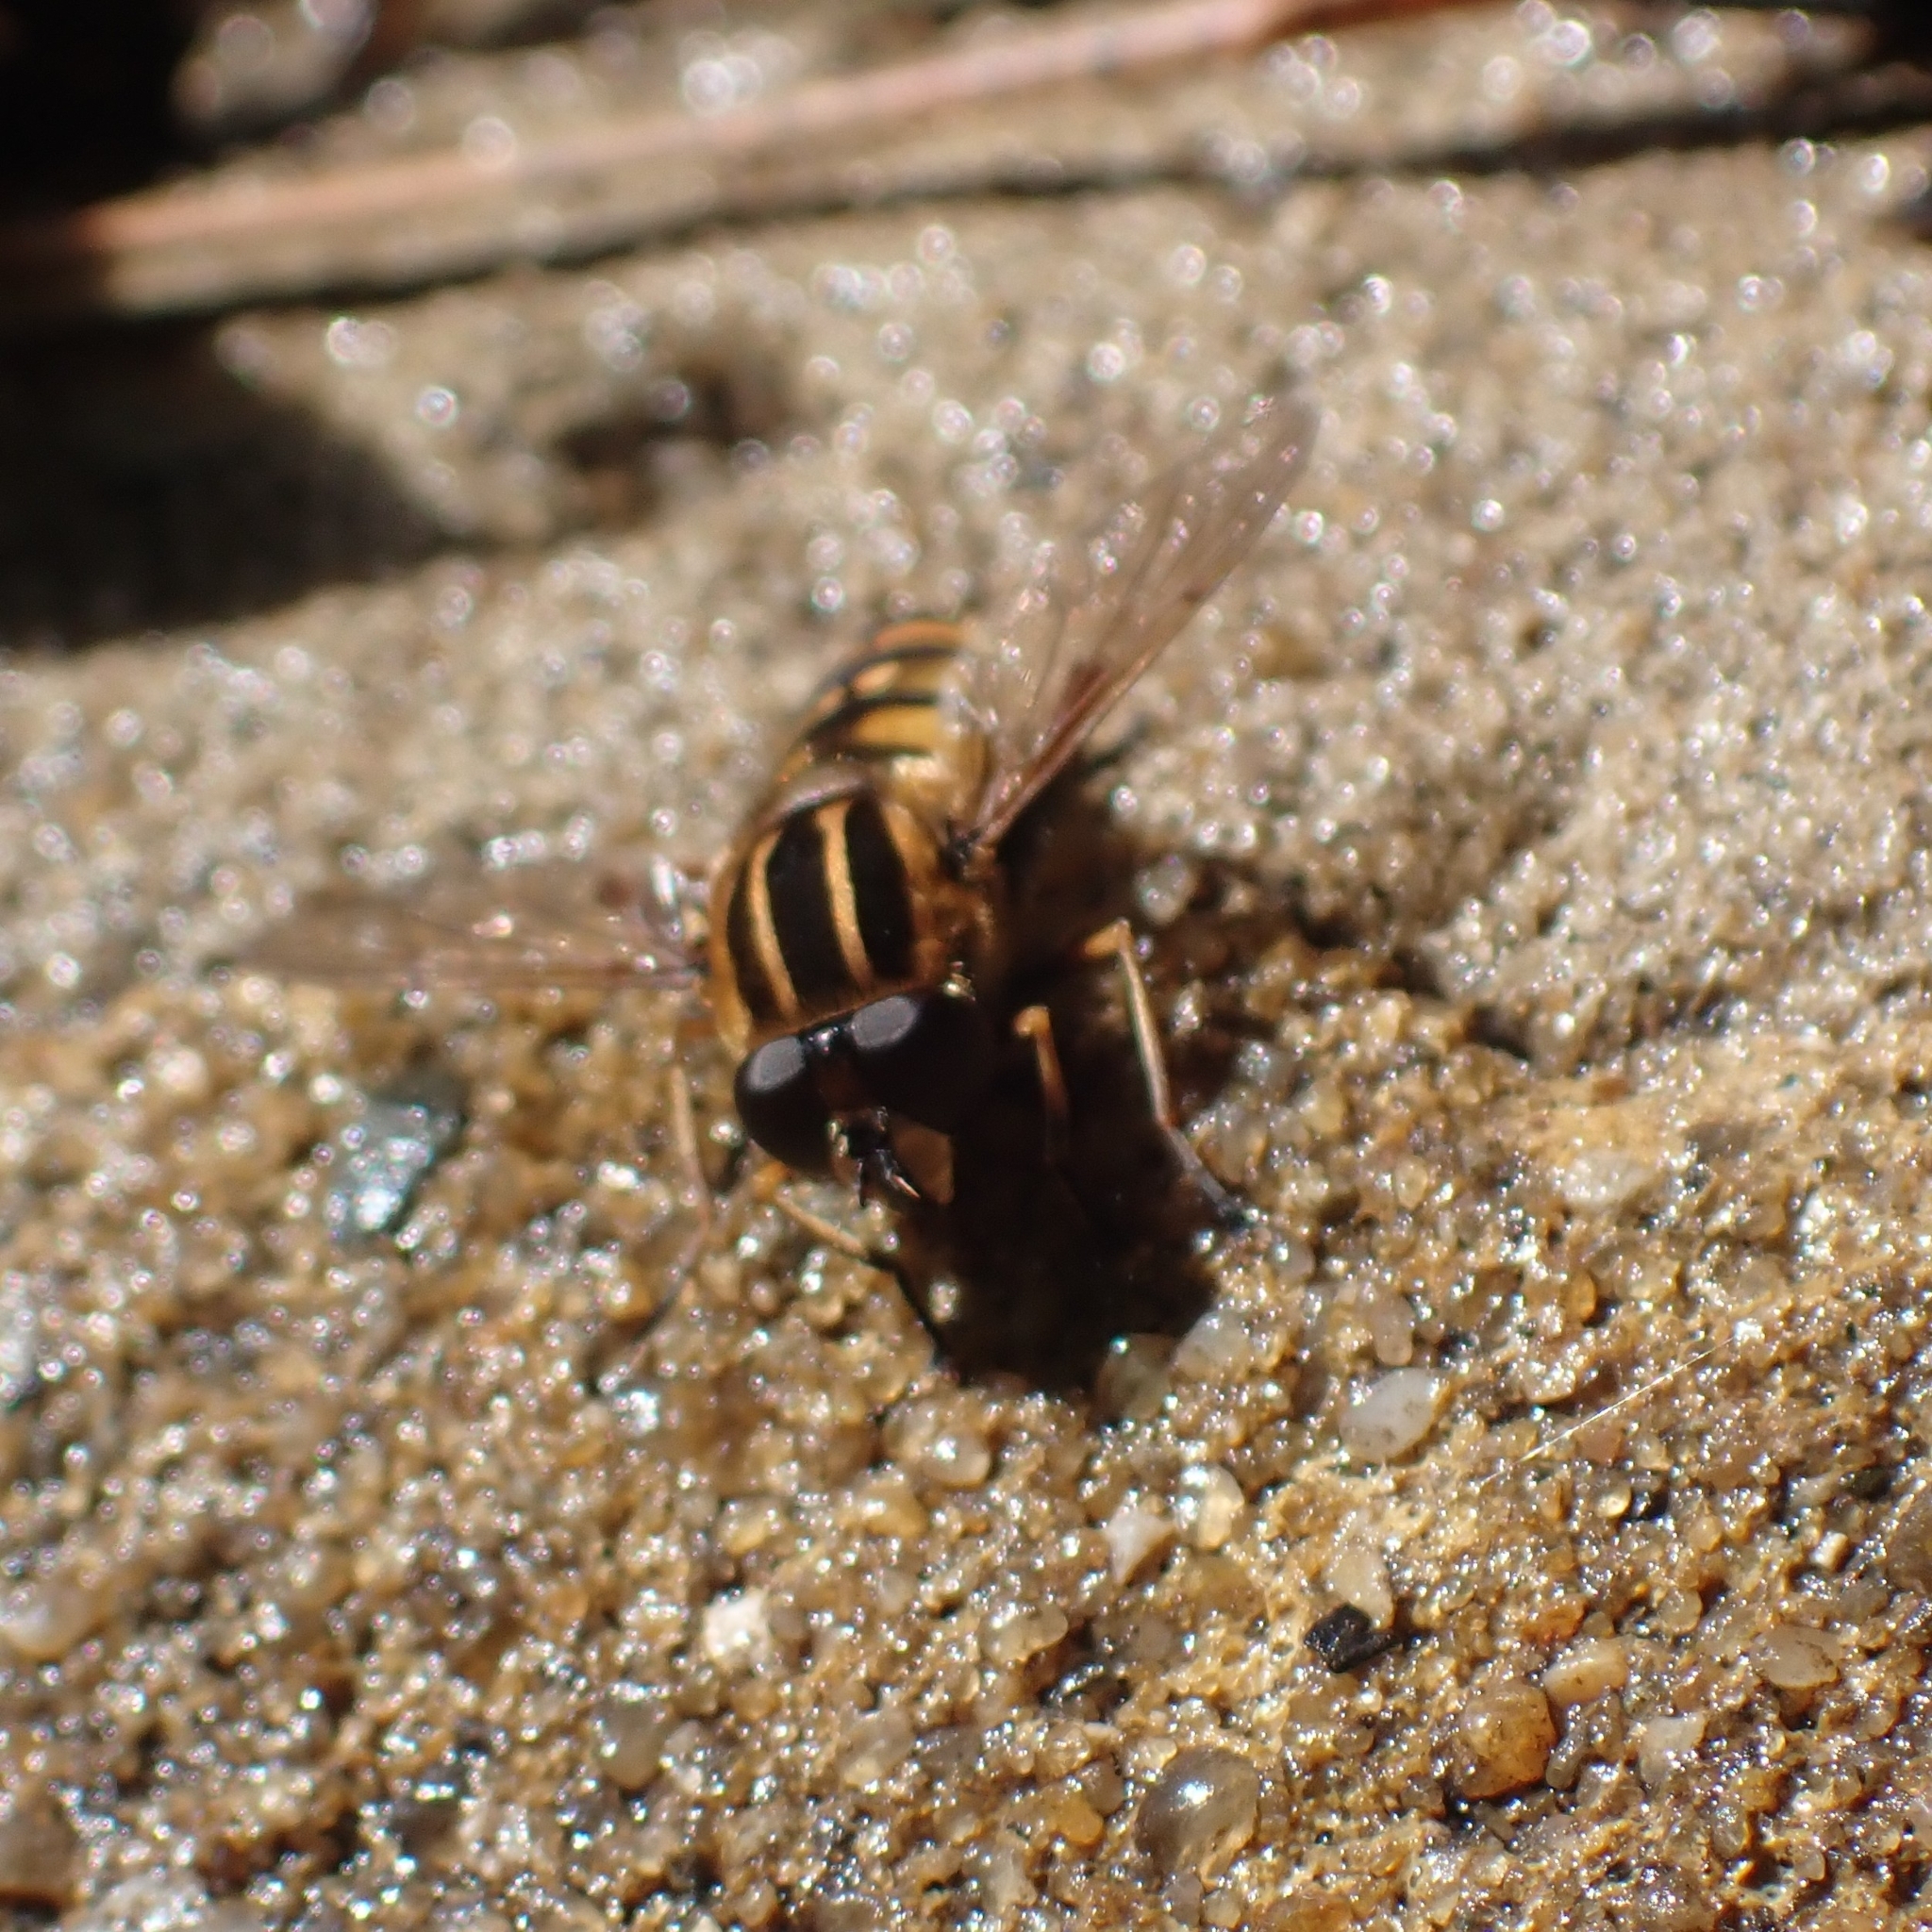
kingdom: Animalia
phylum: Arthropoda
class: Insecta
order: Diptera
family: Syrphidae
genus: Helophilus
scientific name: Helophilus
